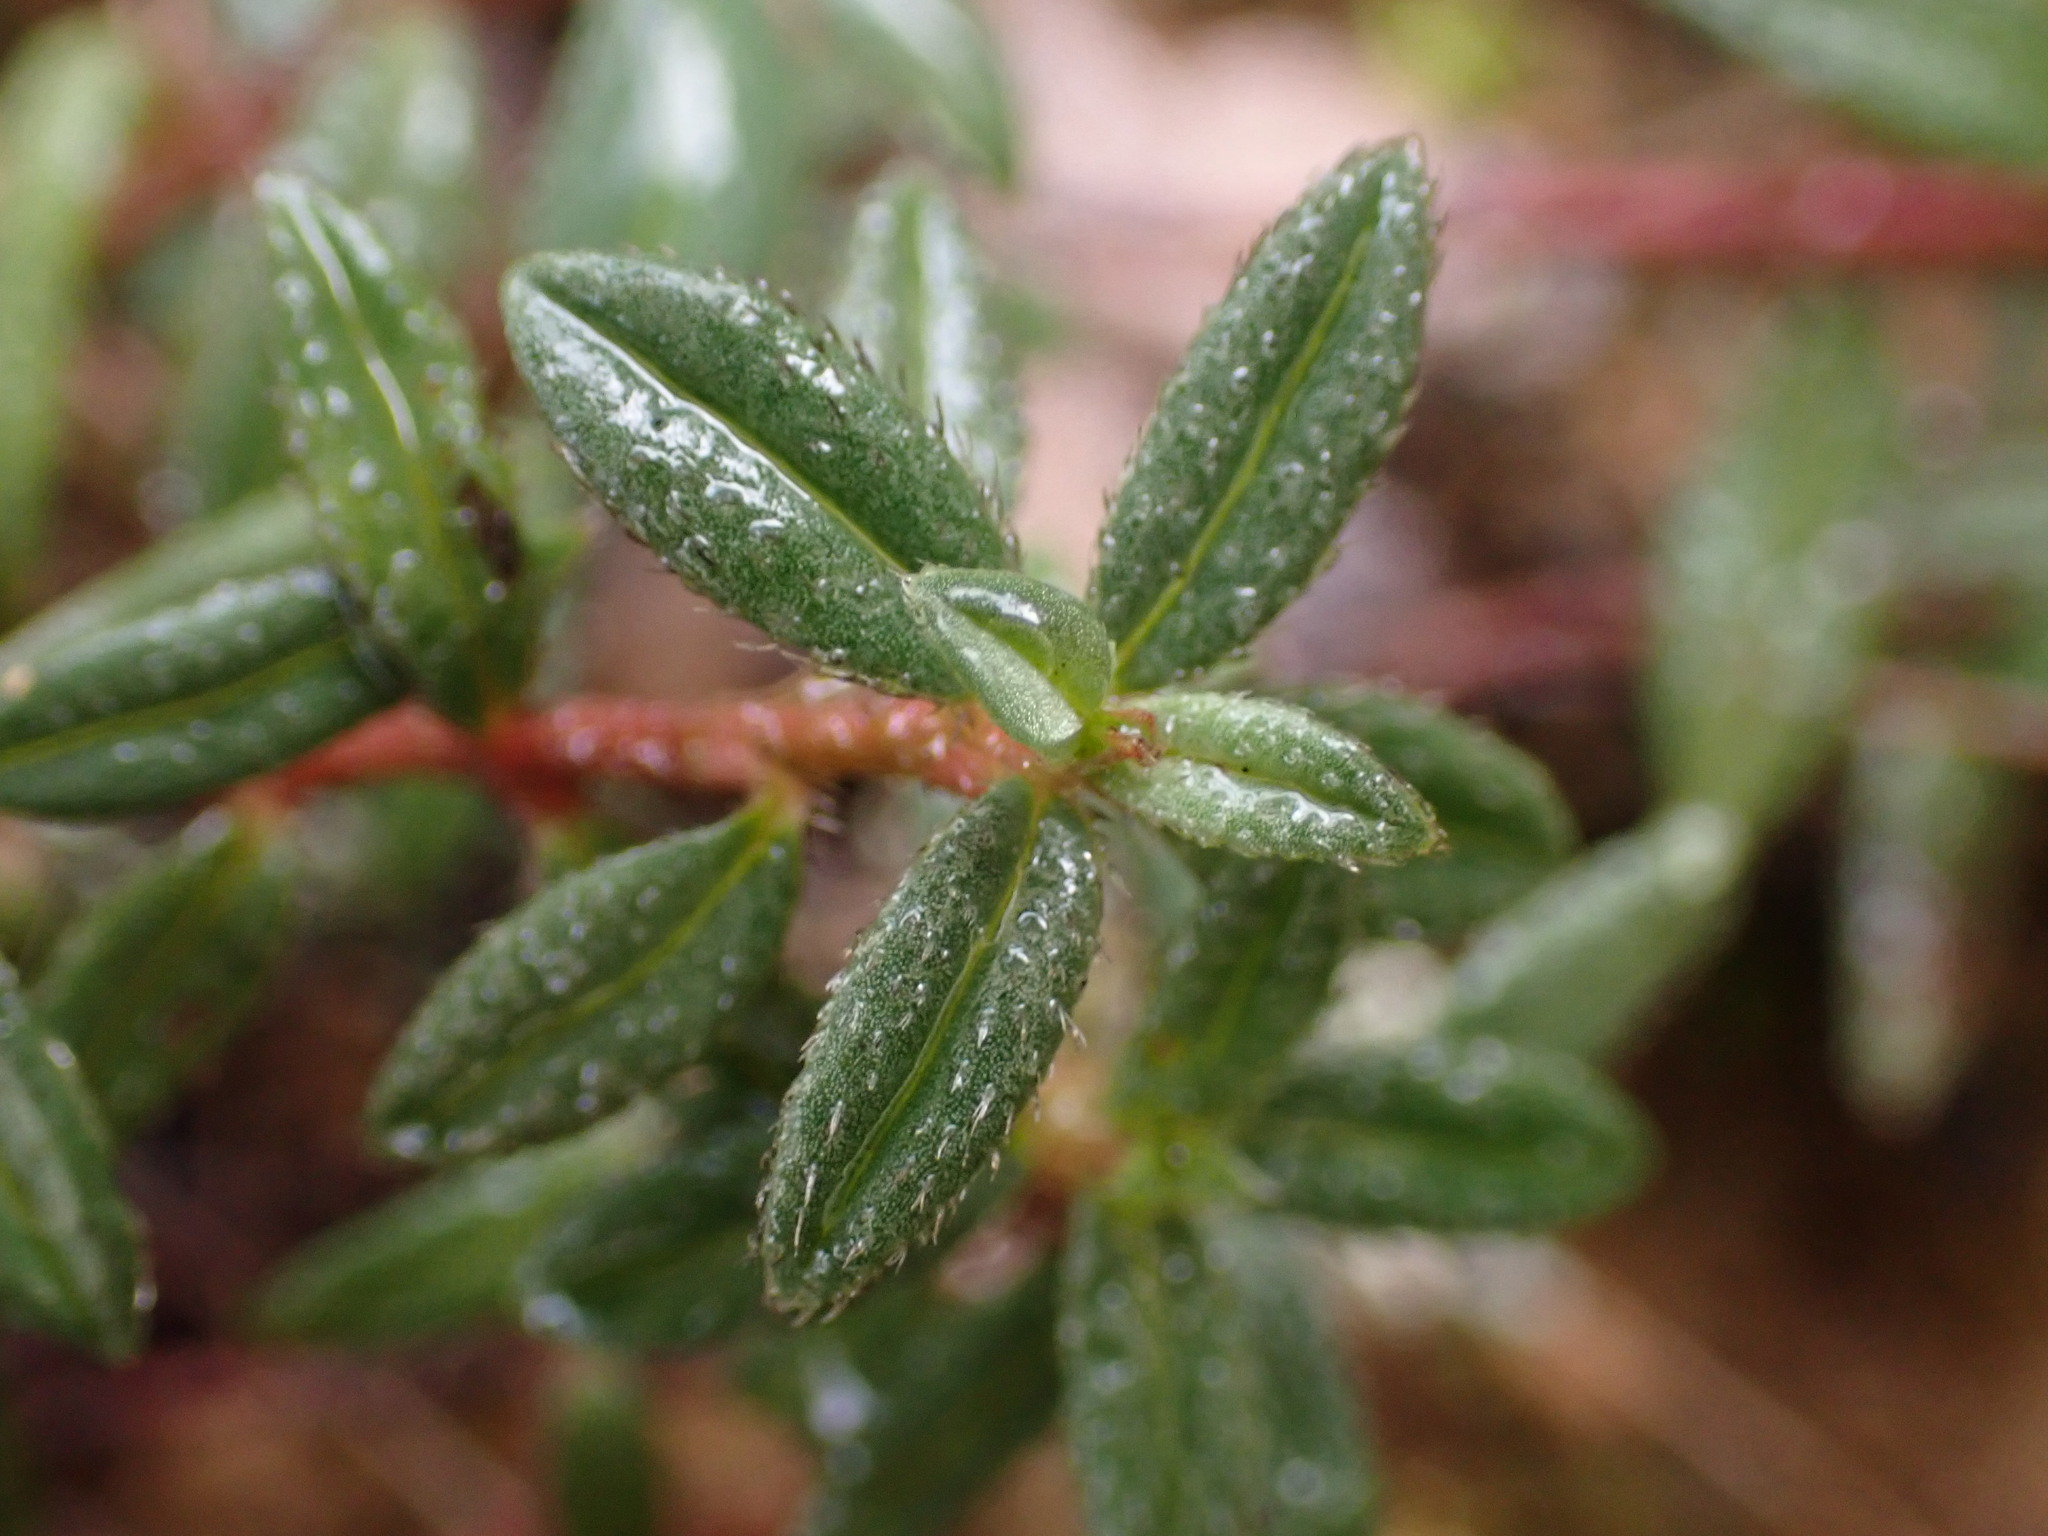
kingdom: Plantae
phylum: Tracheophyta
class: Magnoliopsida
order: Malvales
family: Cistaceae
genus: Helianthemum
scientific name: Helianthemum oelandicum
